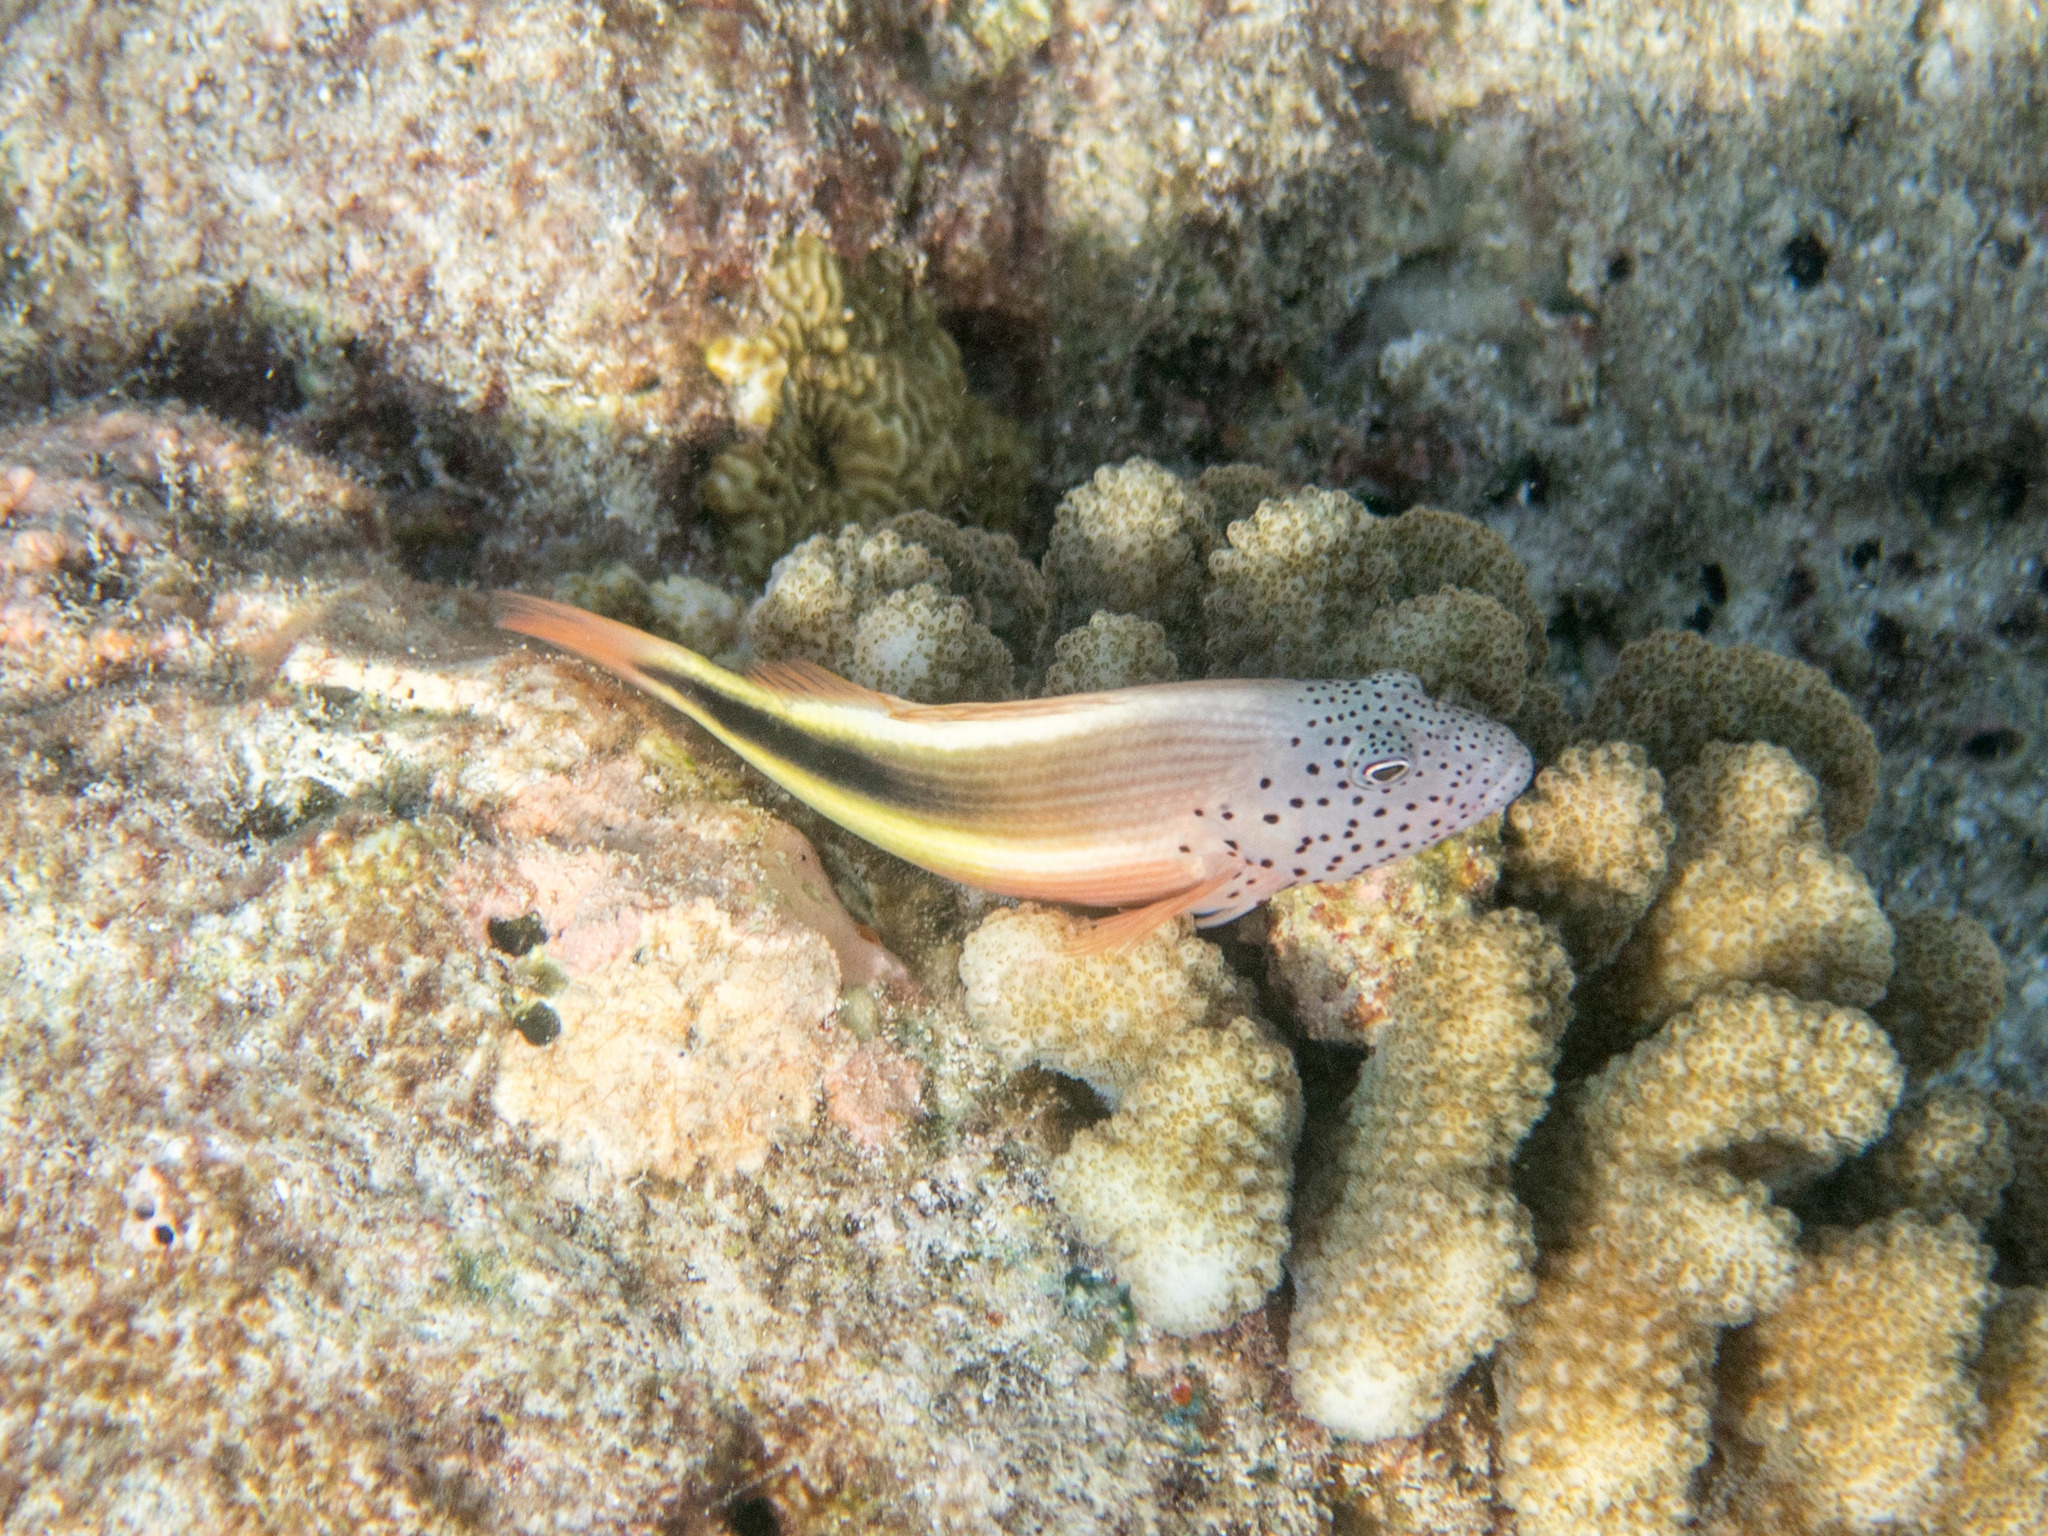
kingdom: Animalia
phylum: Chordata
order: Perciformes
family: Cirrhitidae
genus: Paracirrhites
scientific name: Paracirrhites forsteri
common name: Freckled hawkfish
